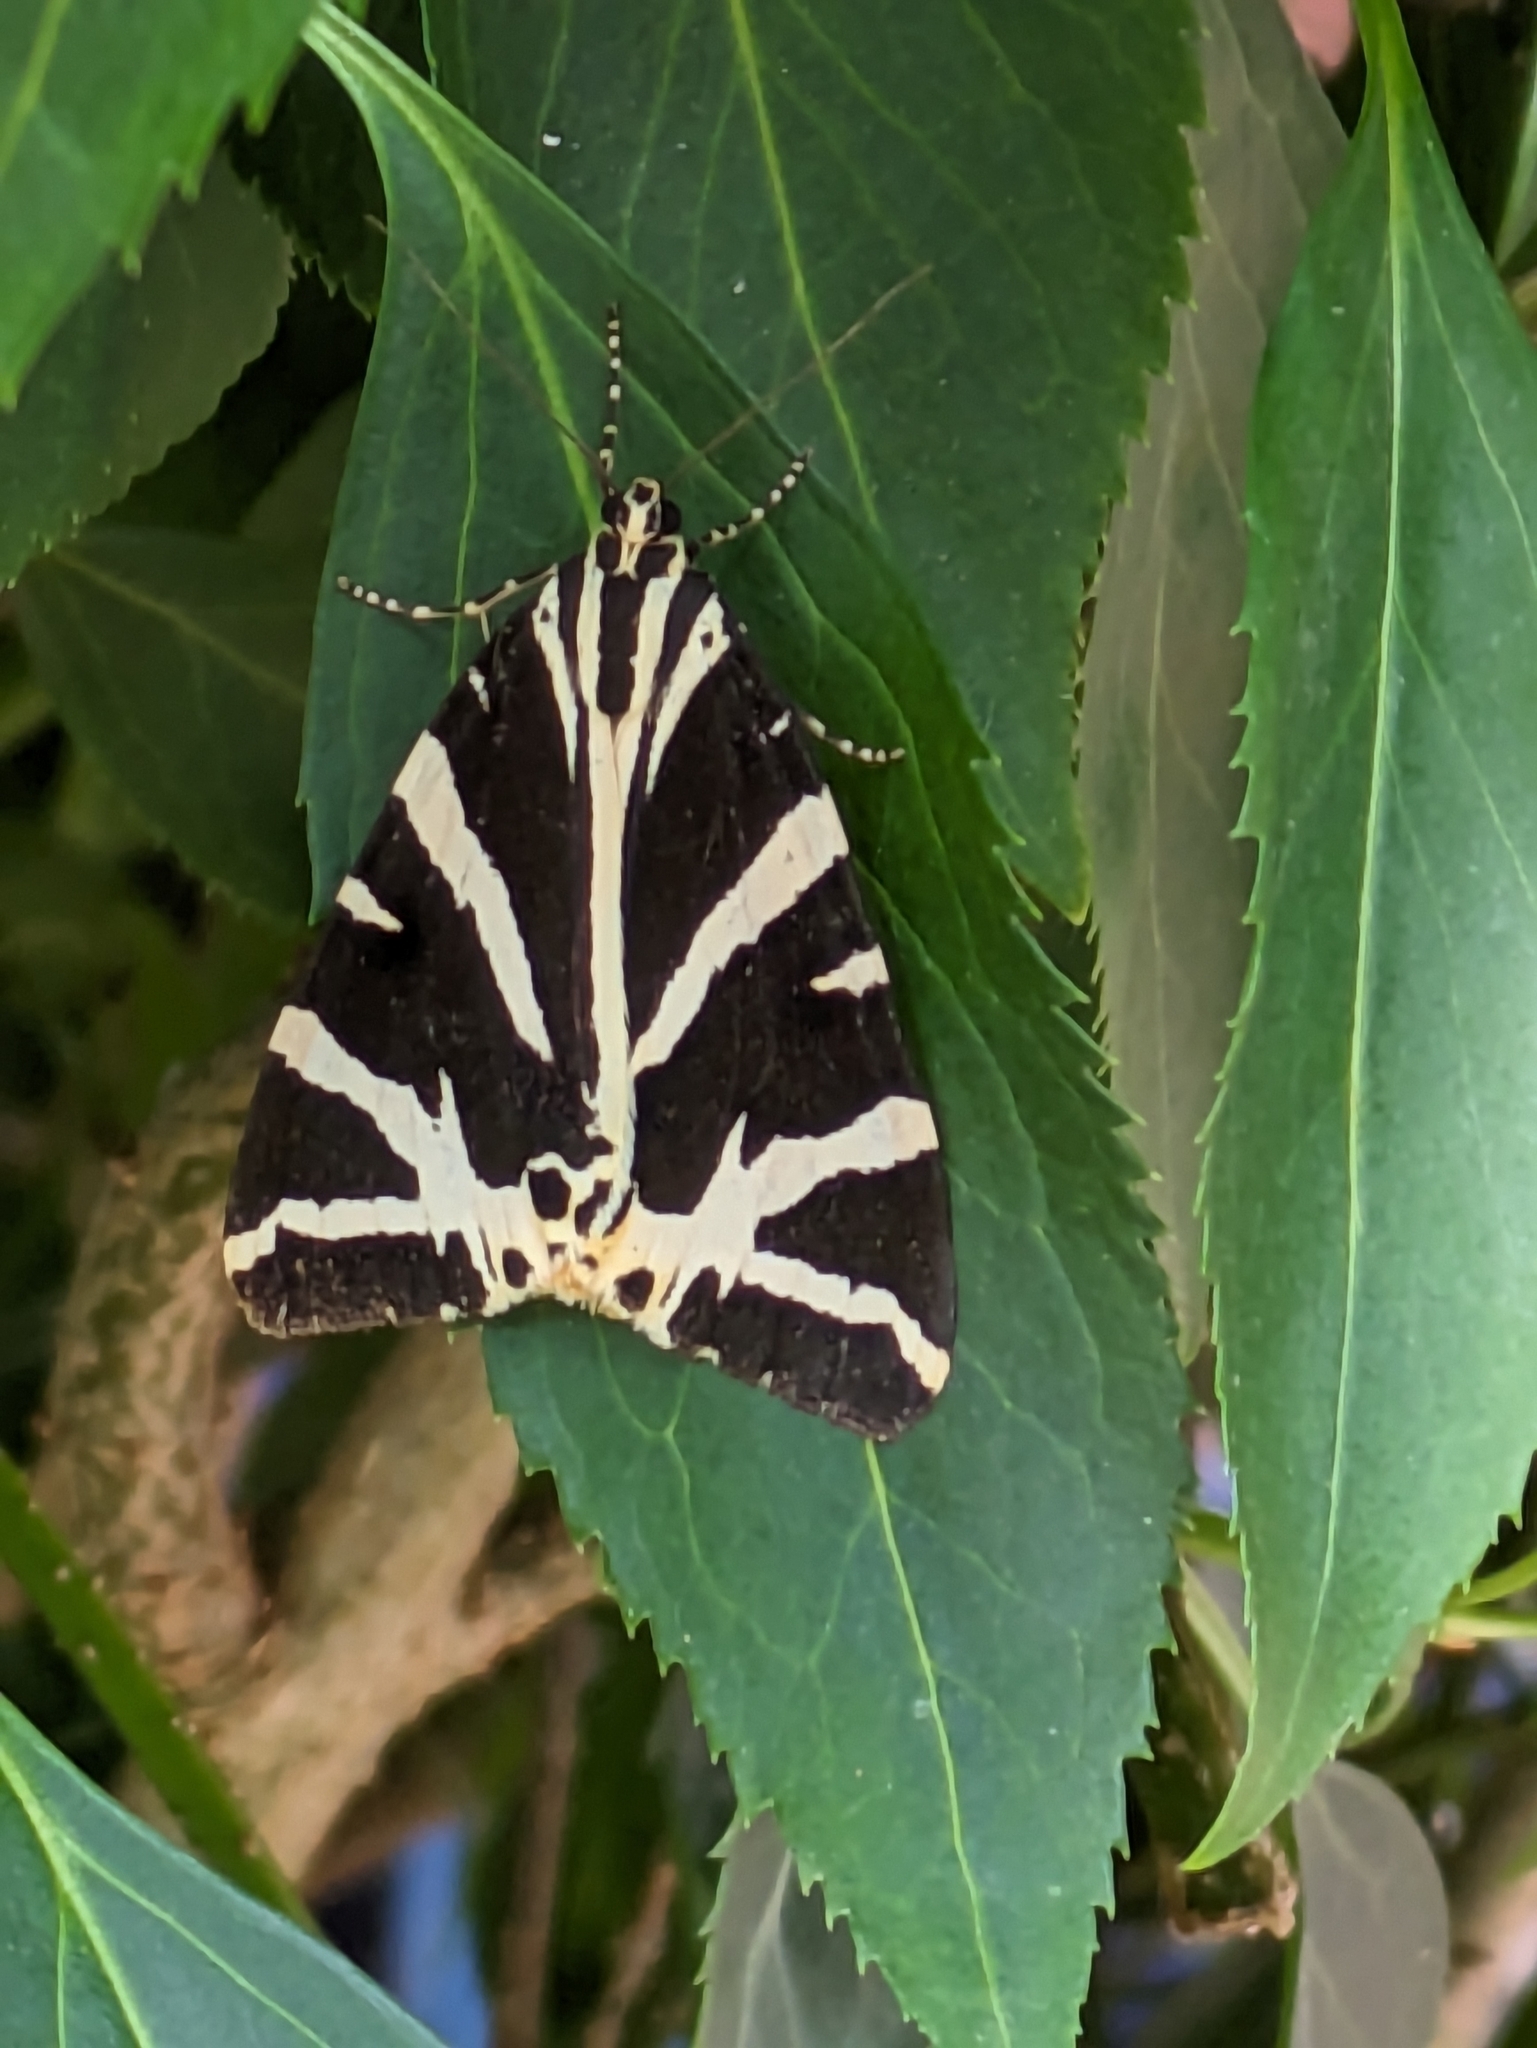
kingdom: Animalia
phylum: Arthropoda
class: Insecta
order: Lepidoptera
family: Erebidae
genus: Euplagia
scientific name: Euplagia quadripunctaria
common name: Jersey tiger
